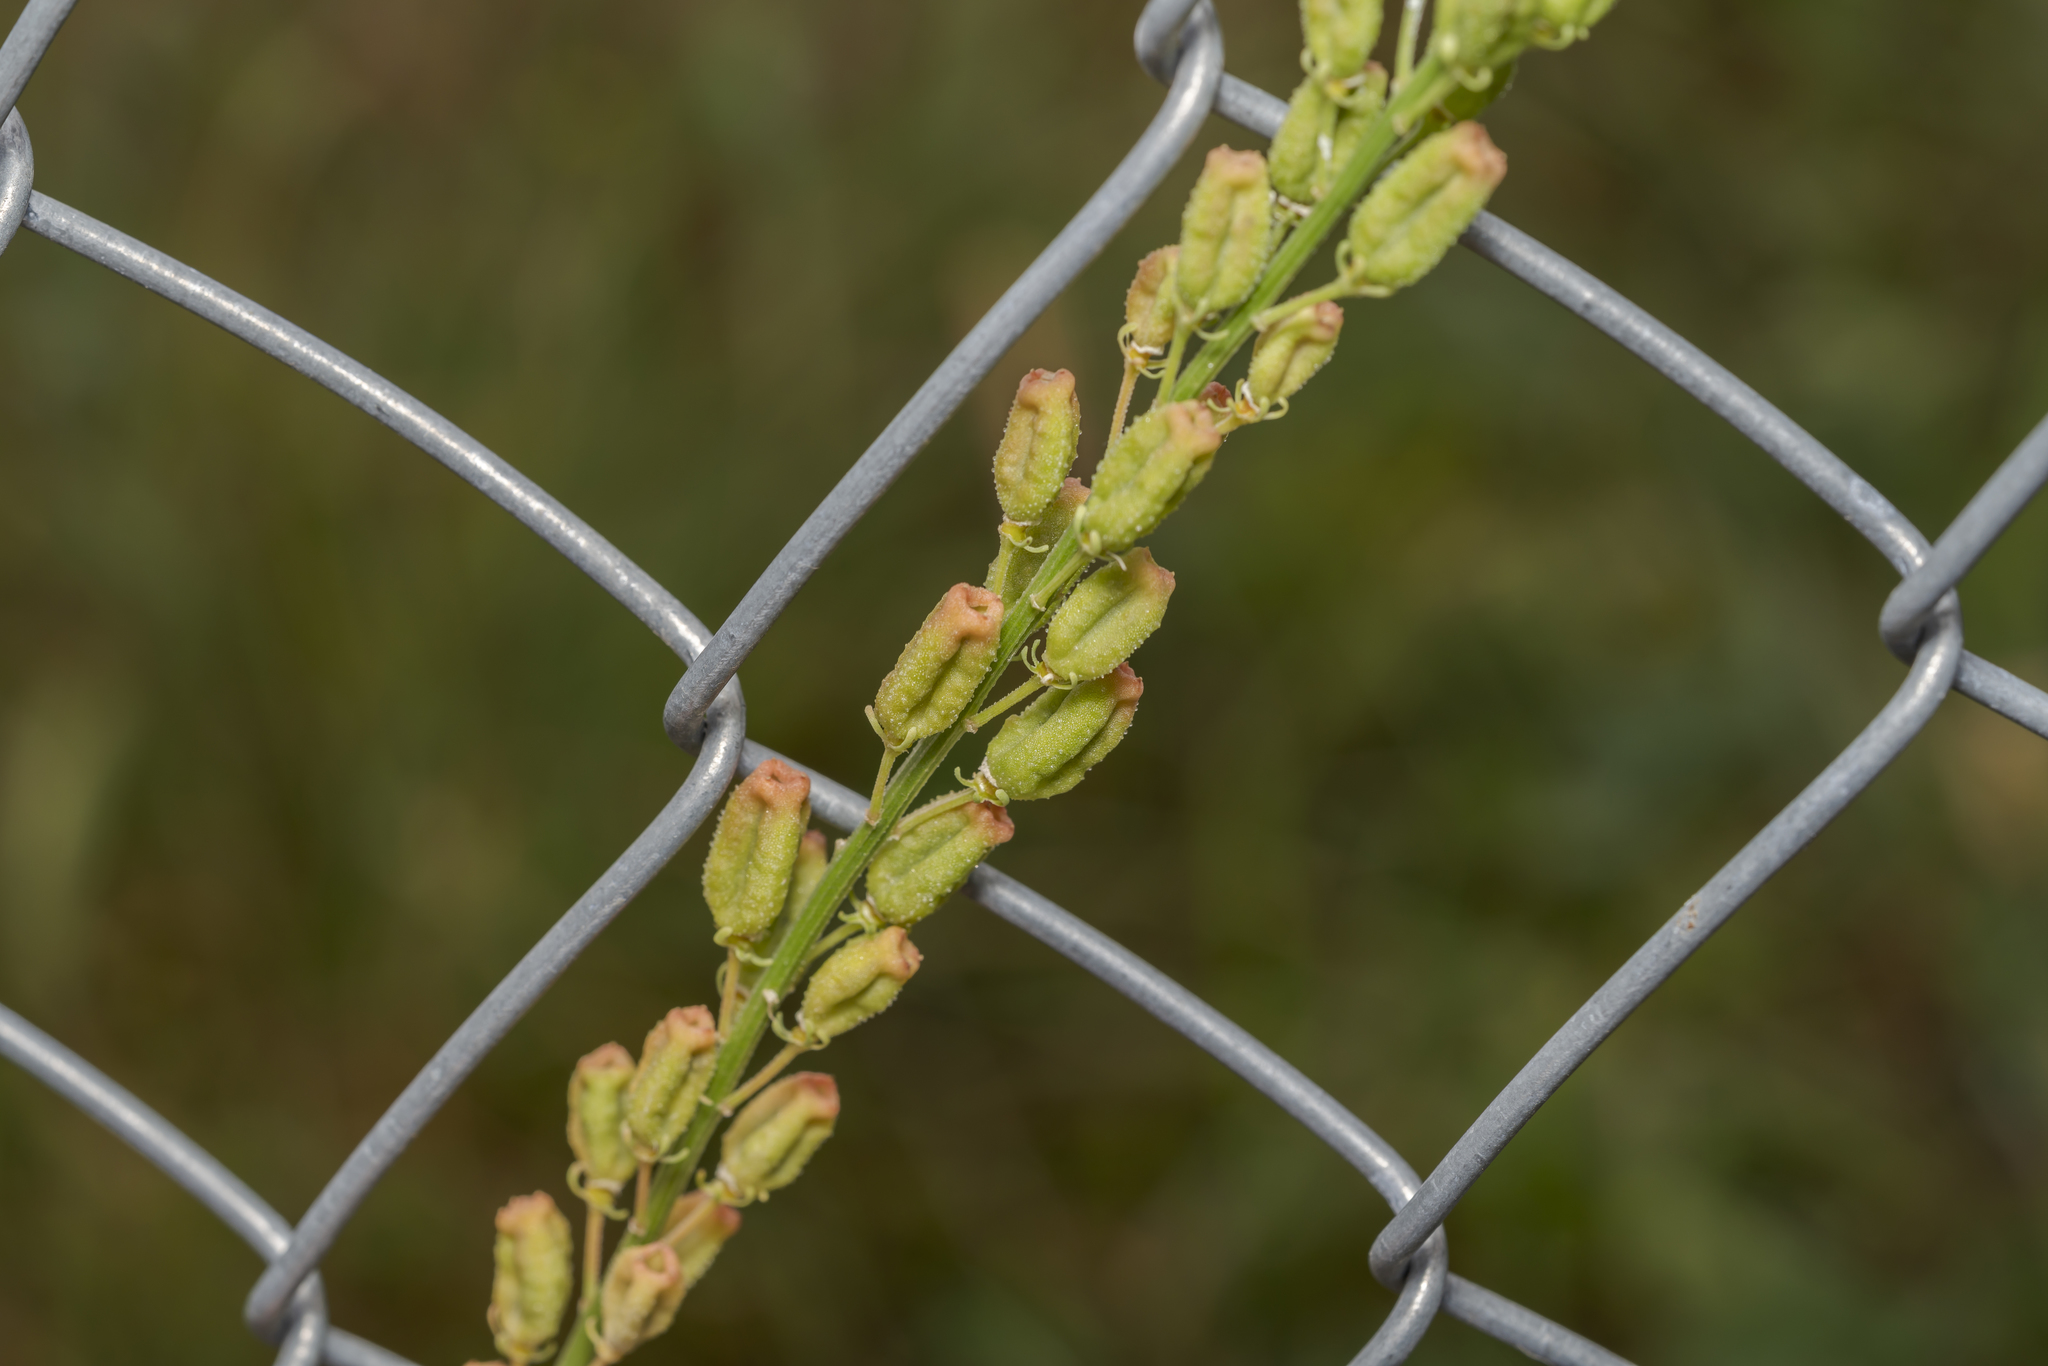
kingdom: Plantae
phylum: Tracheophyta
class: Magnoliopsida
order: Brassicales
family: Resedaceae
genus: Reseda
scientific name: Reseda lutea
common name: Wild mignonette
